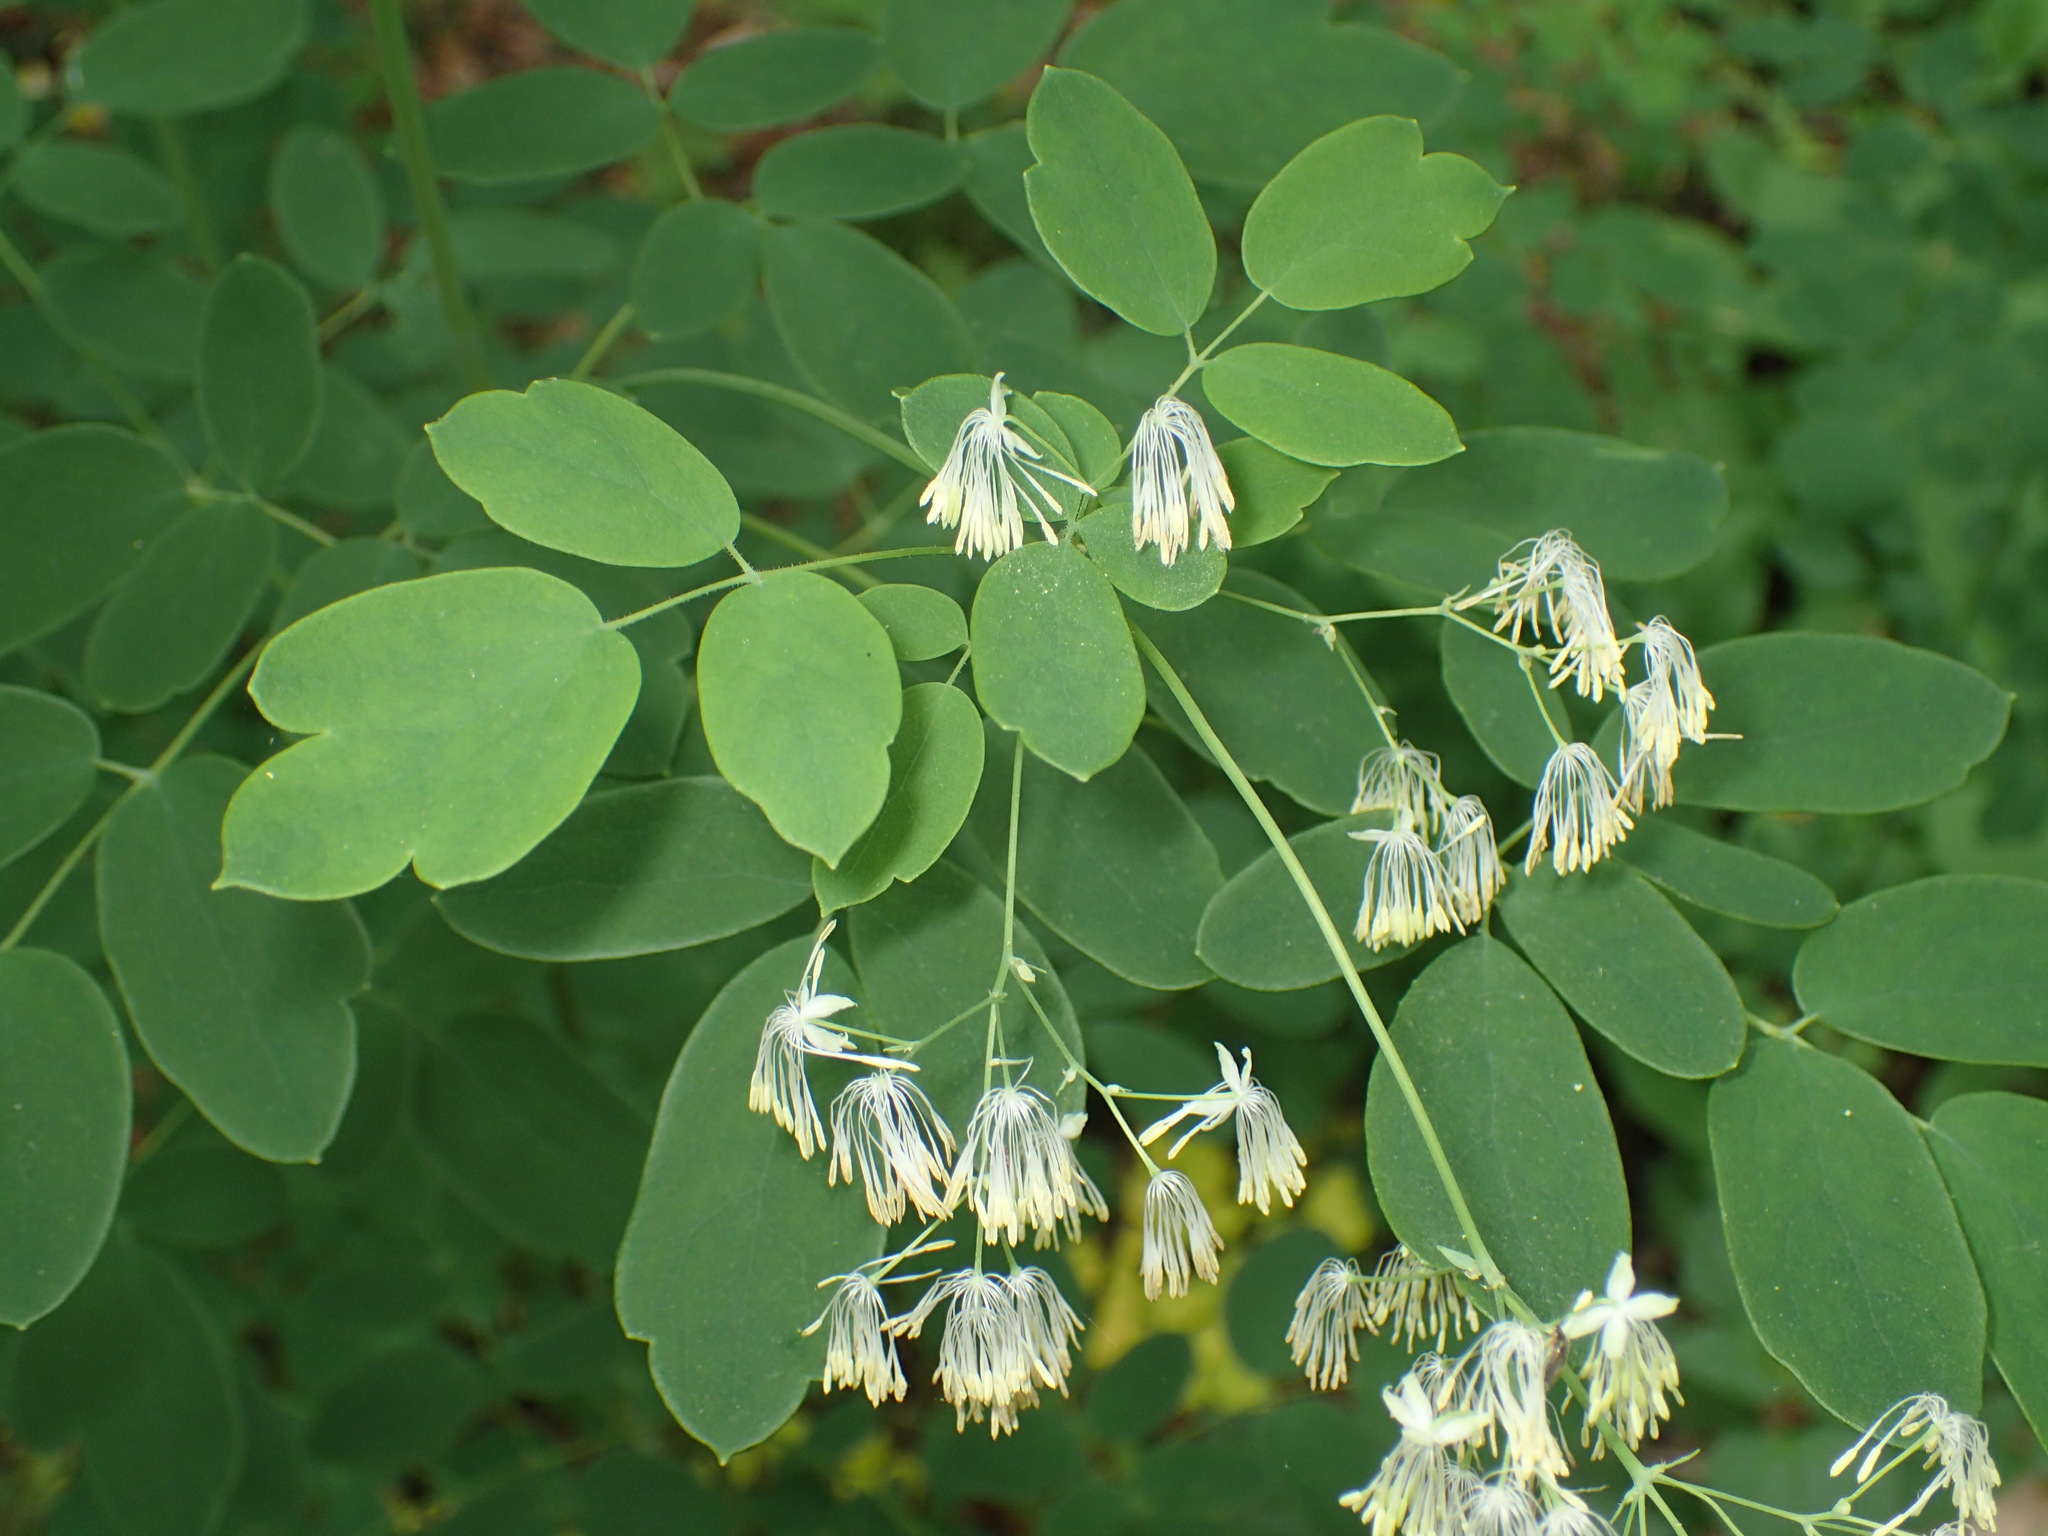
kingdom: Plantae
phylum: Tracheophyta
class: Magnoliopsida
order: Ranunculales
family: Ranunculaceae
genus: Thalictrum
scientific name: Thalictrum dasycarpum
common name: Purple meadow-rue
